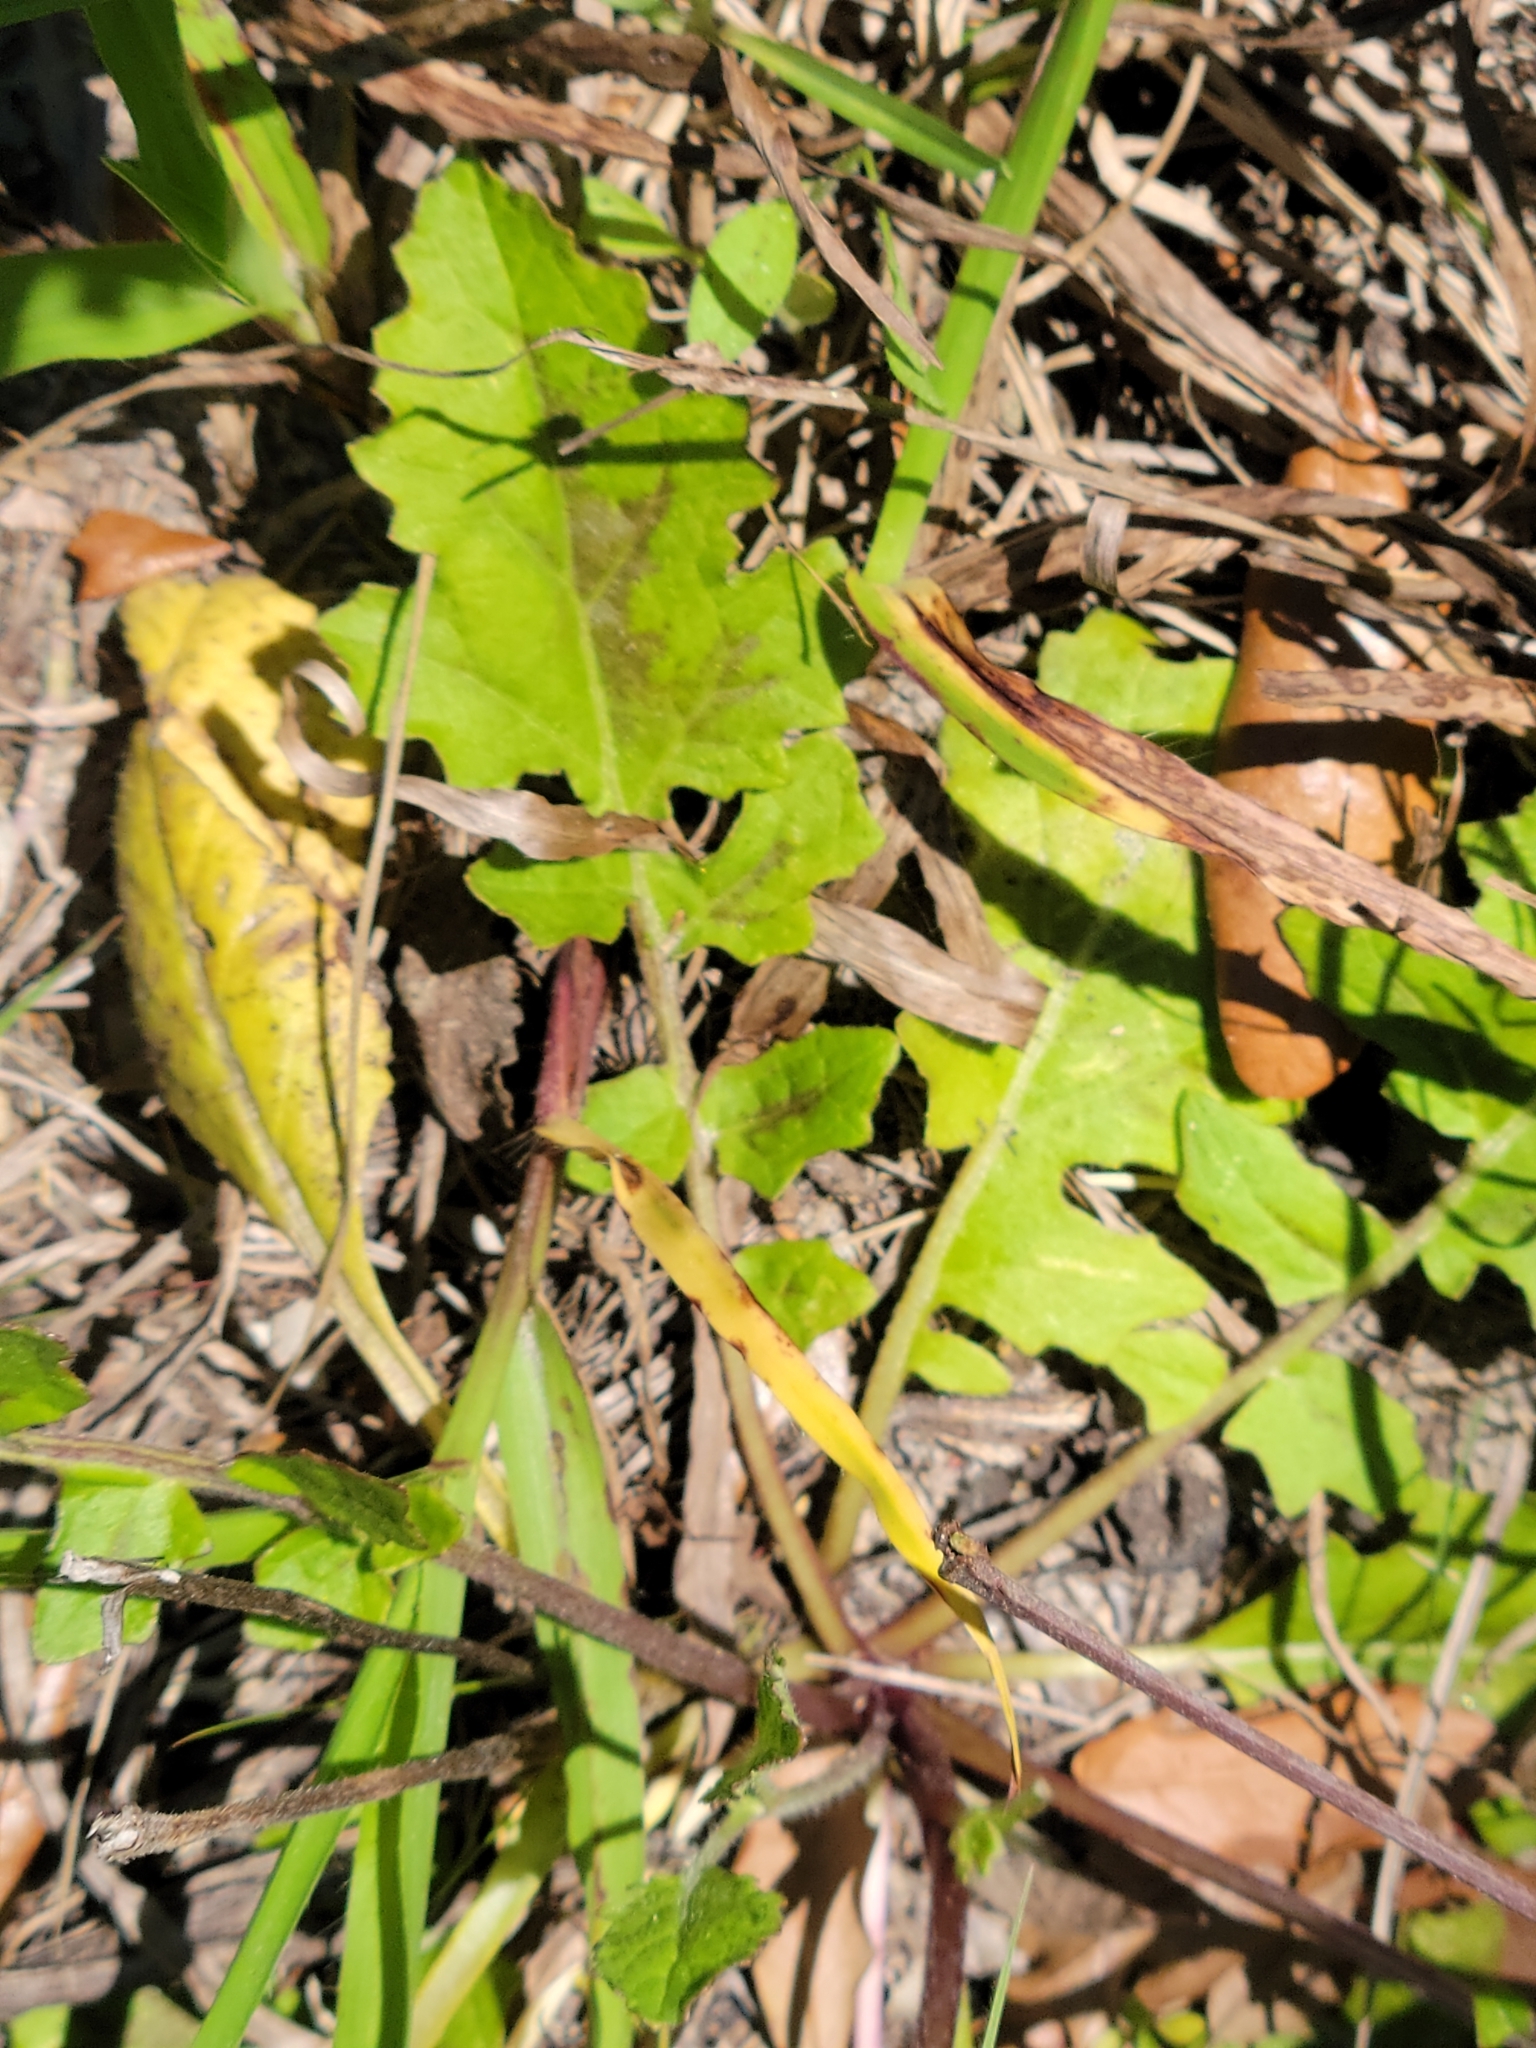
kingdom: Plantae
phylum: Tracheophyta
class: Magnoliopsida
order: Lamiales
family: Lamiaceae
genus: Salvia
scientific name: Salvia lyrata
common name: Cancerweed
